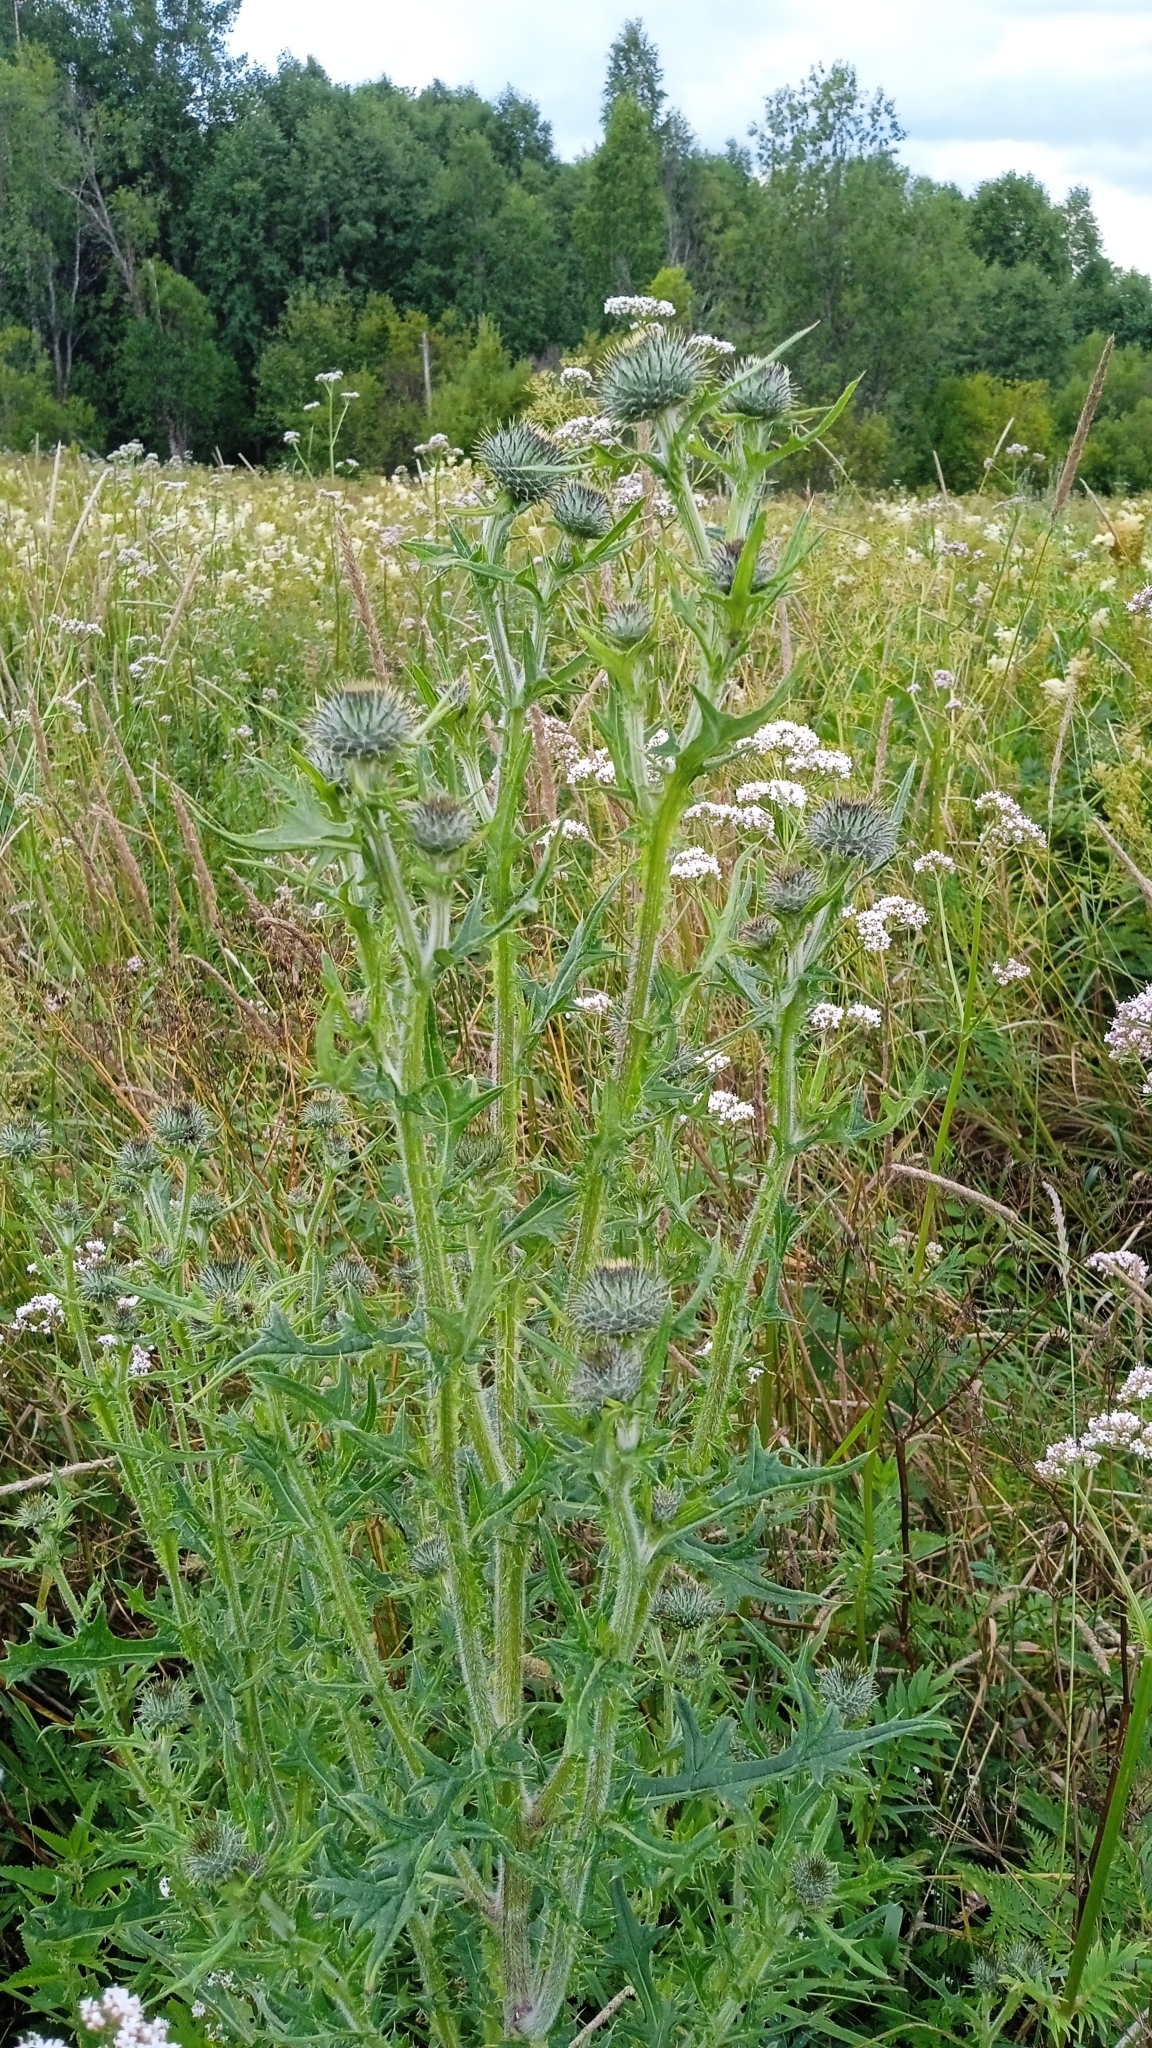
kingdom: Plantae
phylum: Tracheophyta
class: Magnoliopsida
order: Asterales
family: Asteraceae
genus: Cirsium
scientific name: Cirsium vulgare
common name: Bull thistle
